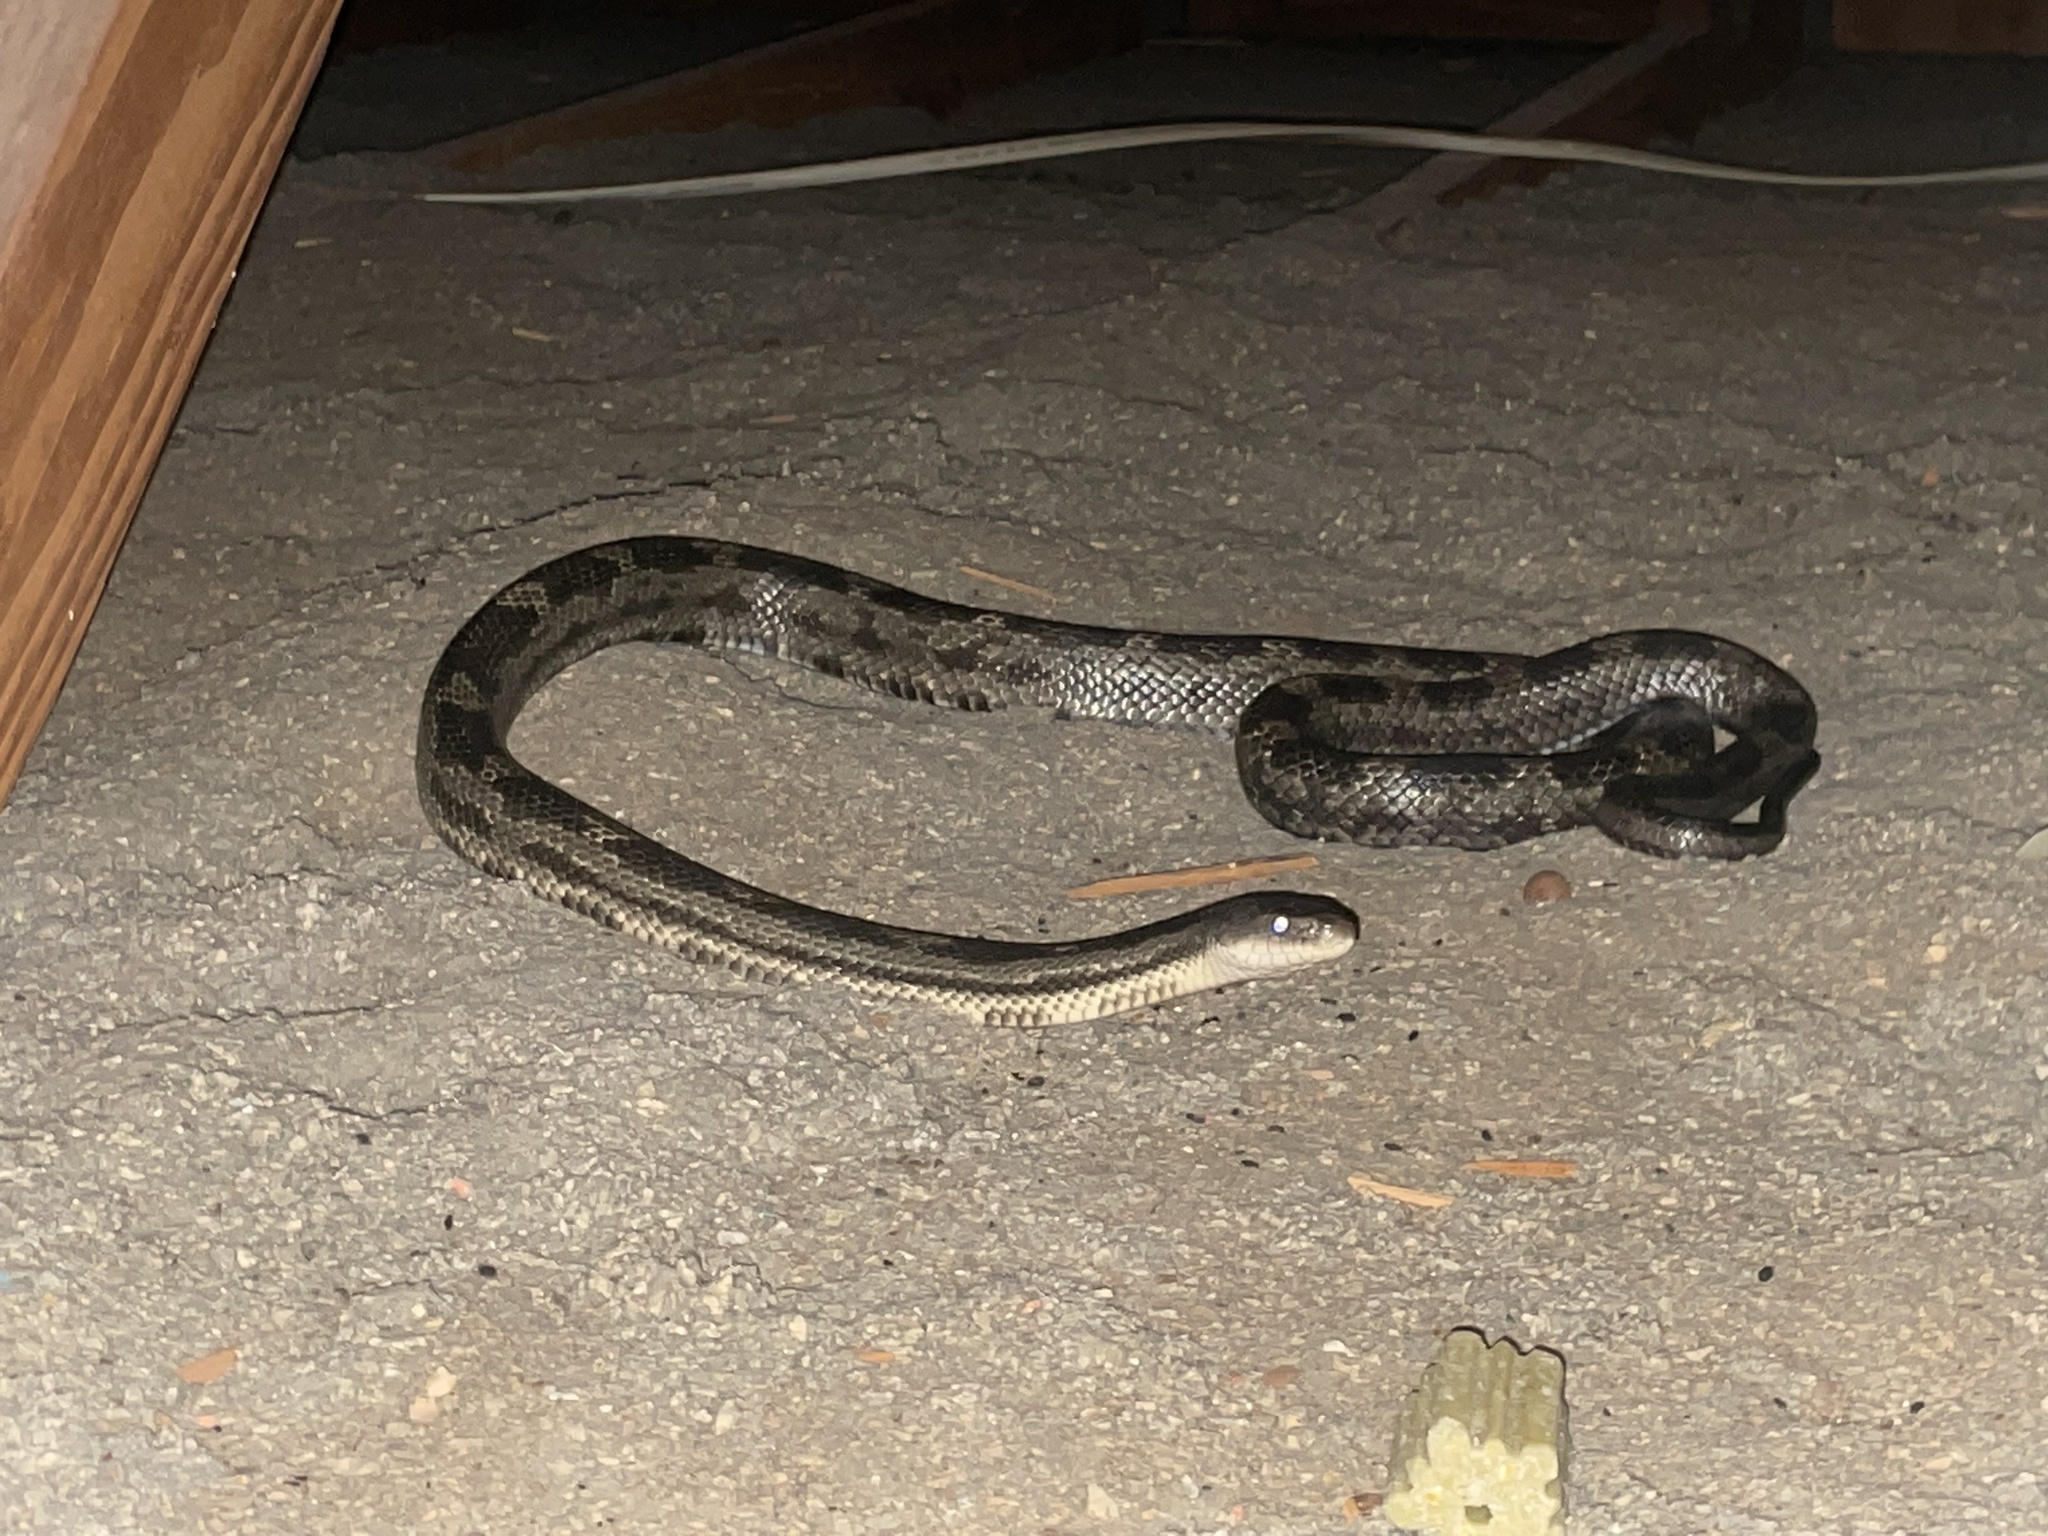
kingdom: Animalia
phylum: Chordata
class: Squamata
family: Colubridae
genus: Pantherophis
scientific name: Pantherophis spiloides
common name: Gray rat snake
